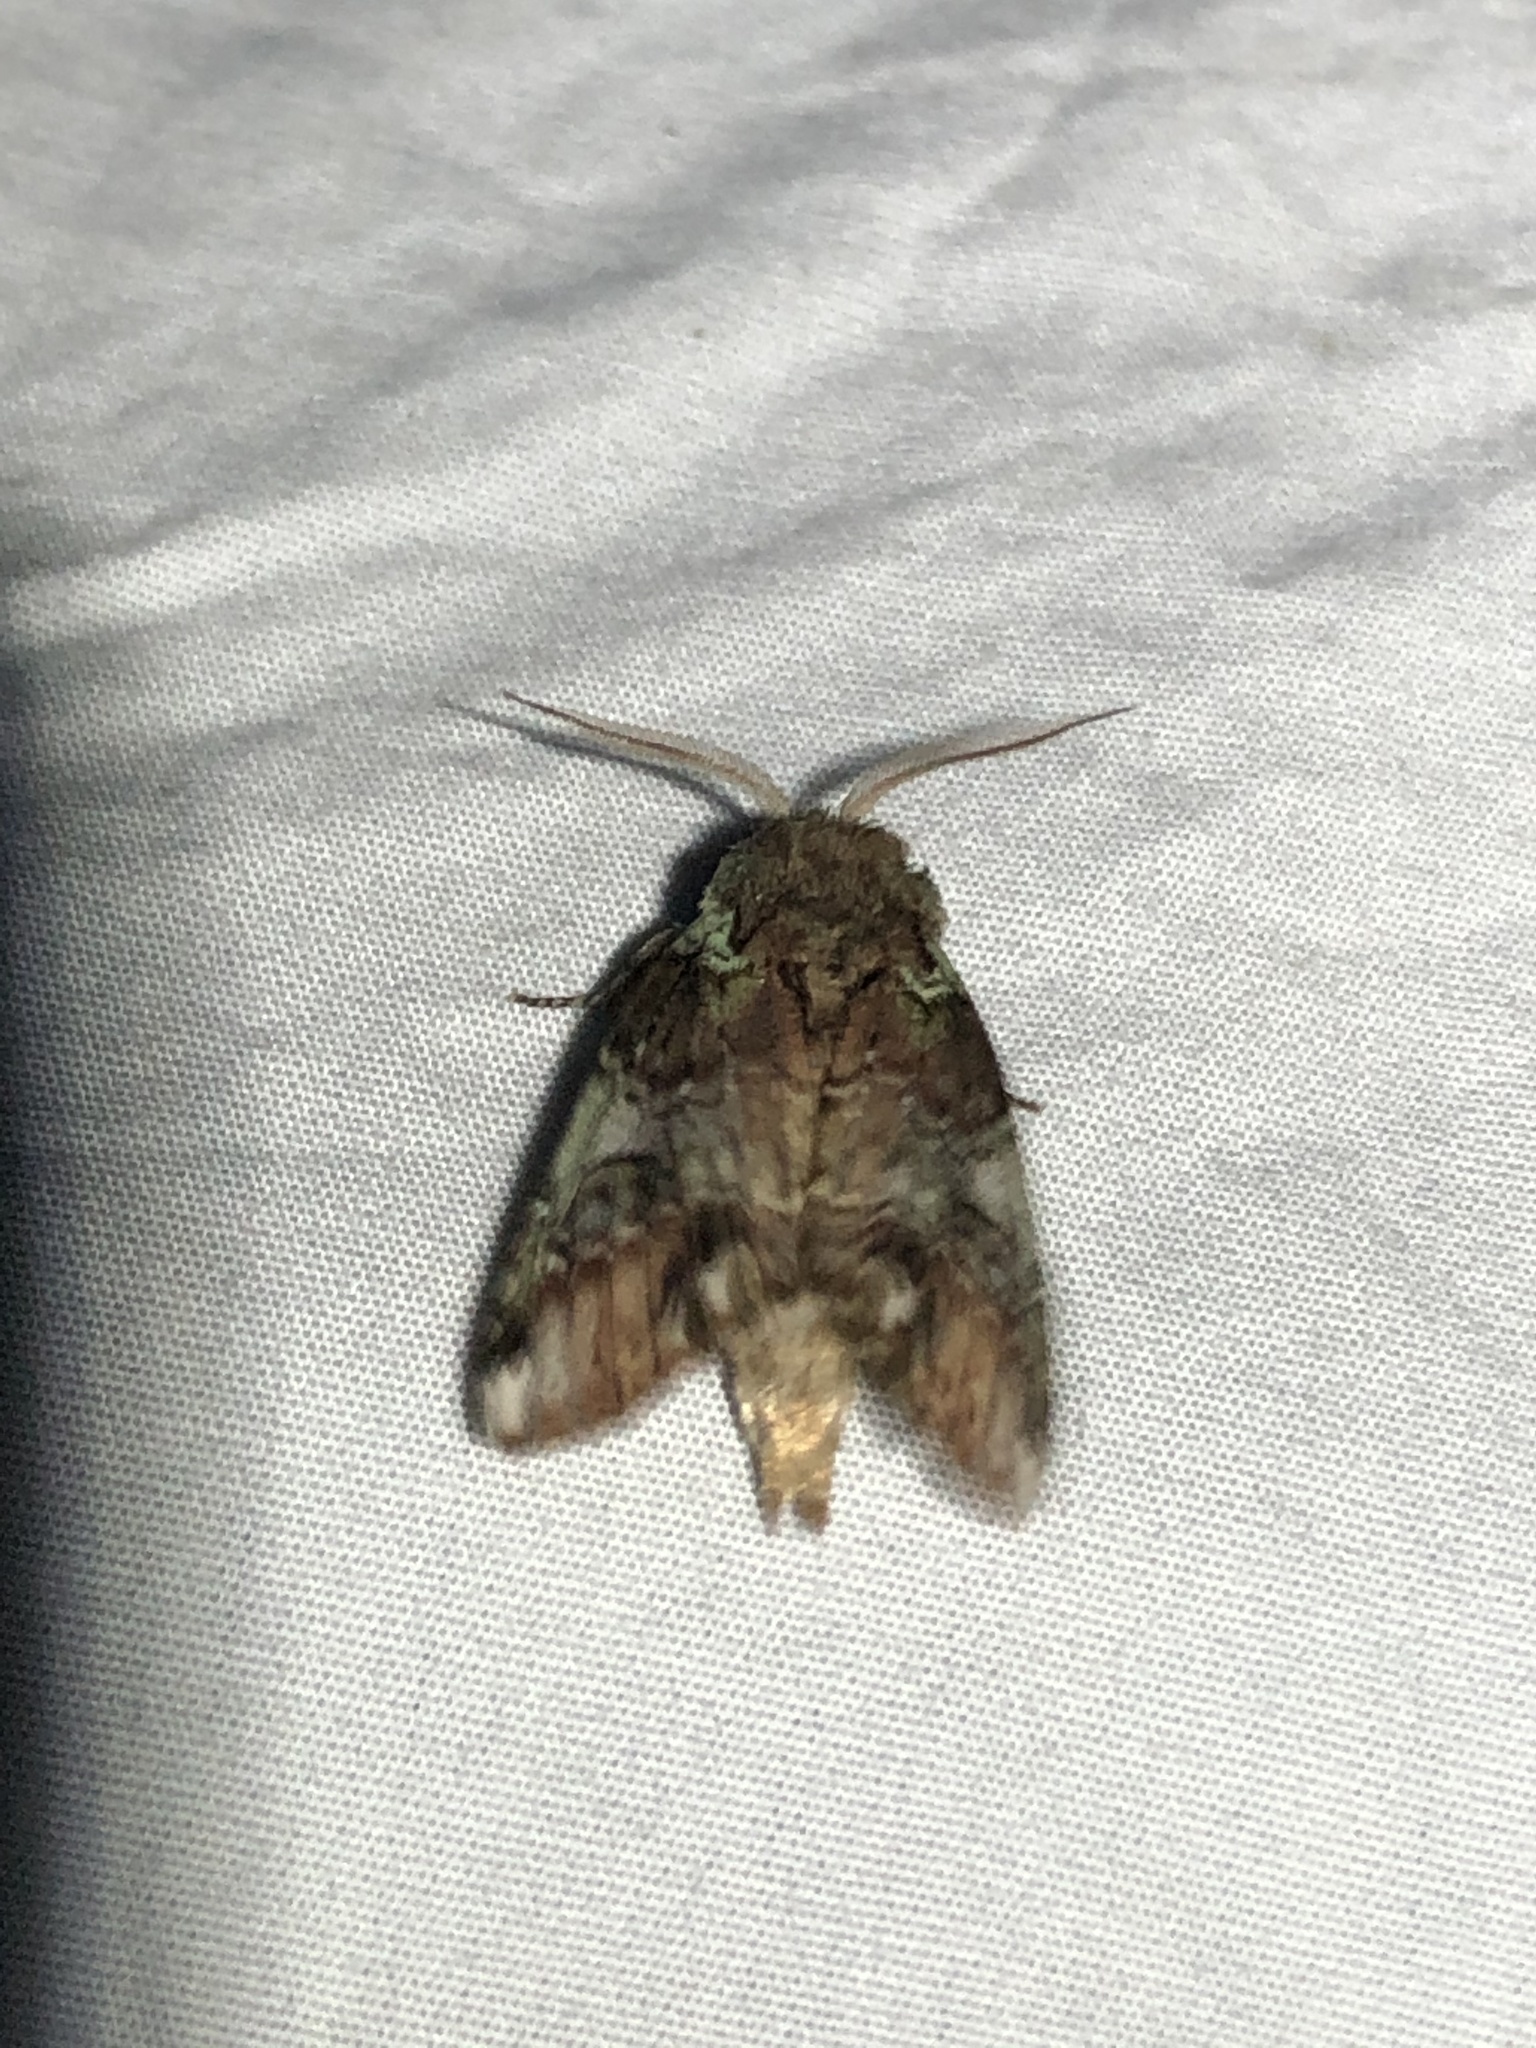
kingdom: Animalia
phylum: Arthropoda
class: Insecta
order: Lepidoptera
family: Notodontidae
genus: Schizura
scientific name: Schizura
